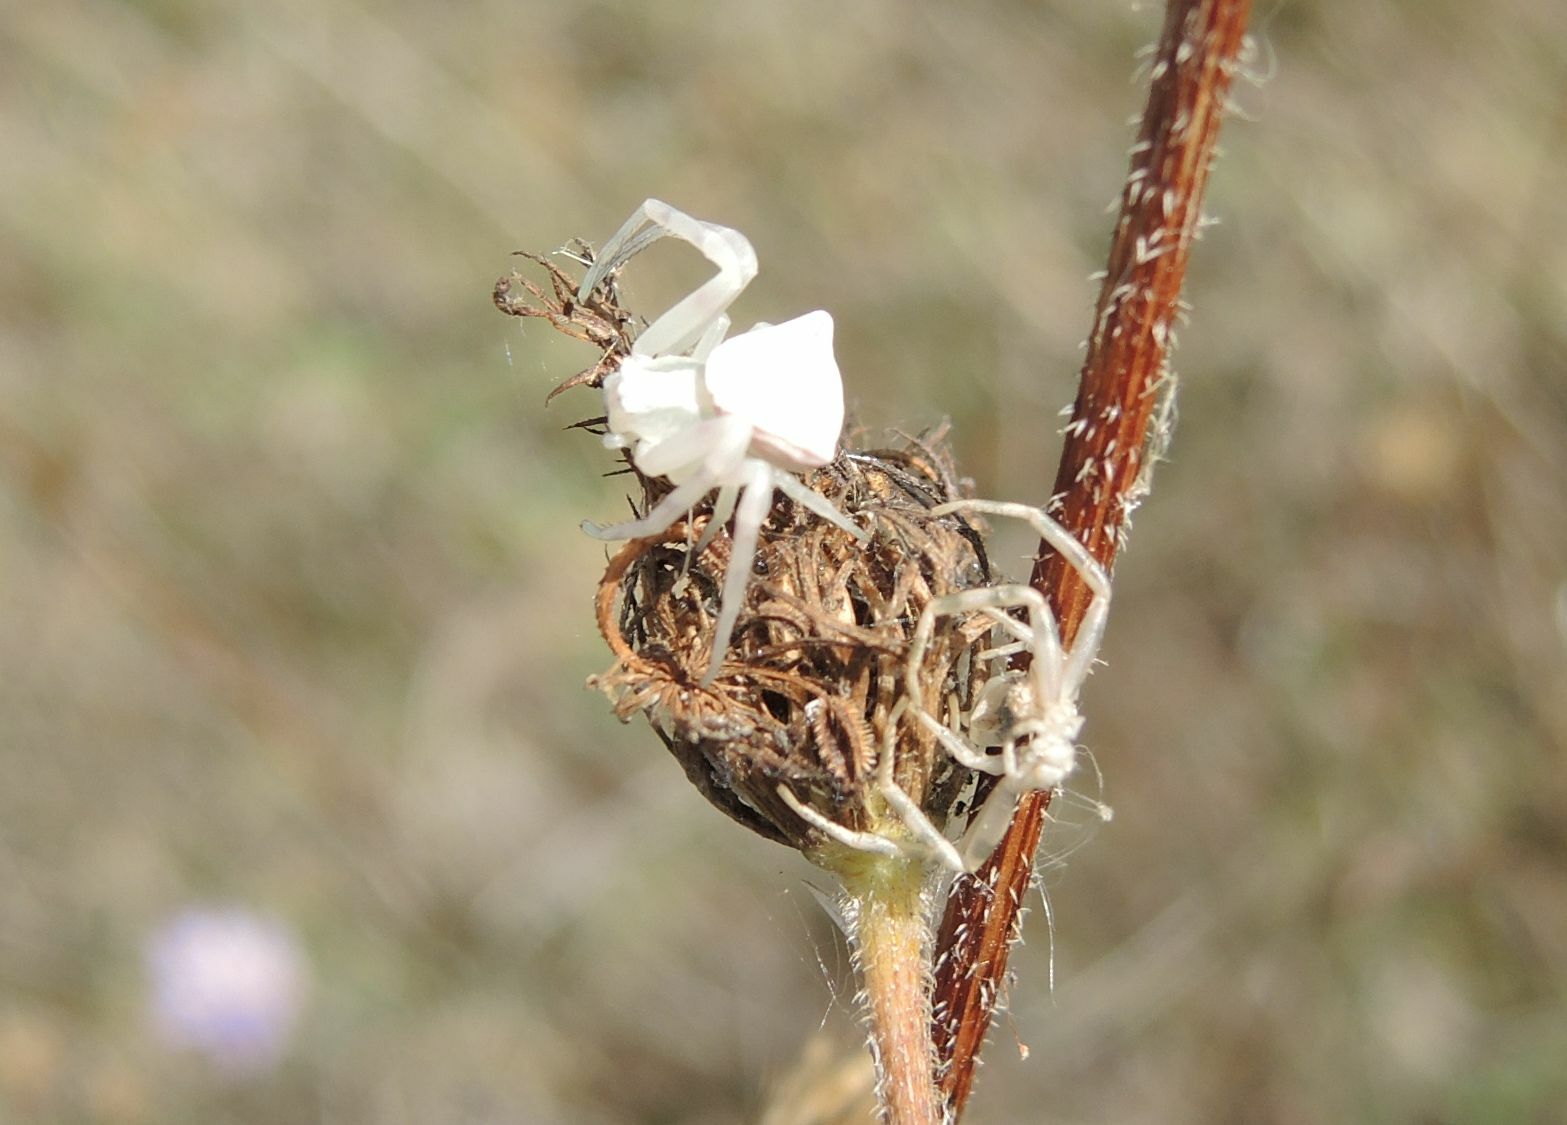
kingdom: Animalia
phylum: Arthropoda
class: Arachnida
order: Araneae
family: Thomisidae
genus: Thomisus
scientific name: Thomisus onustus
